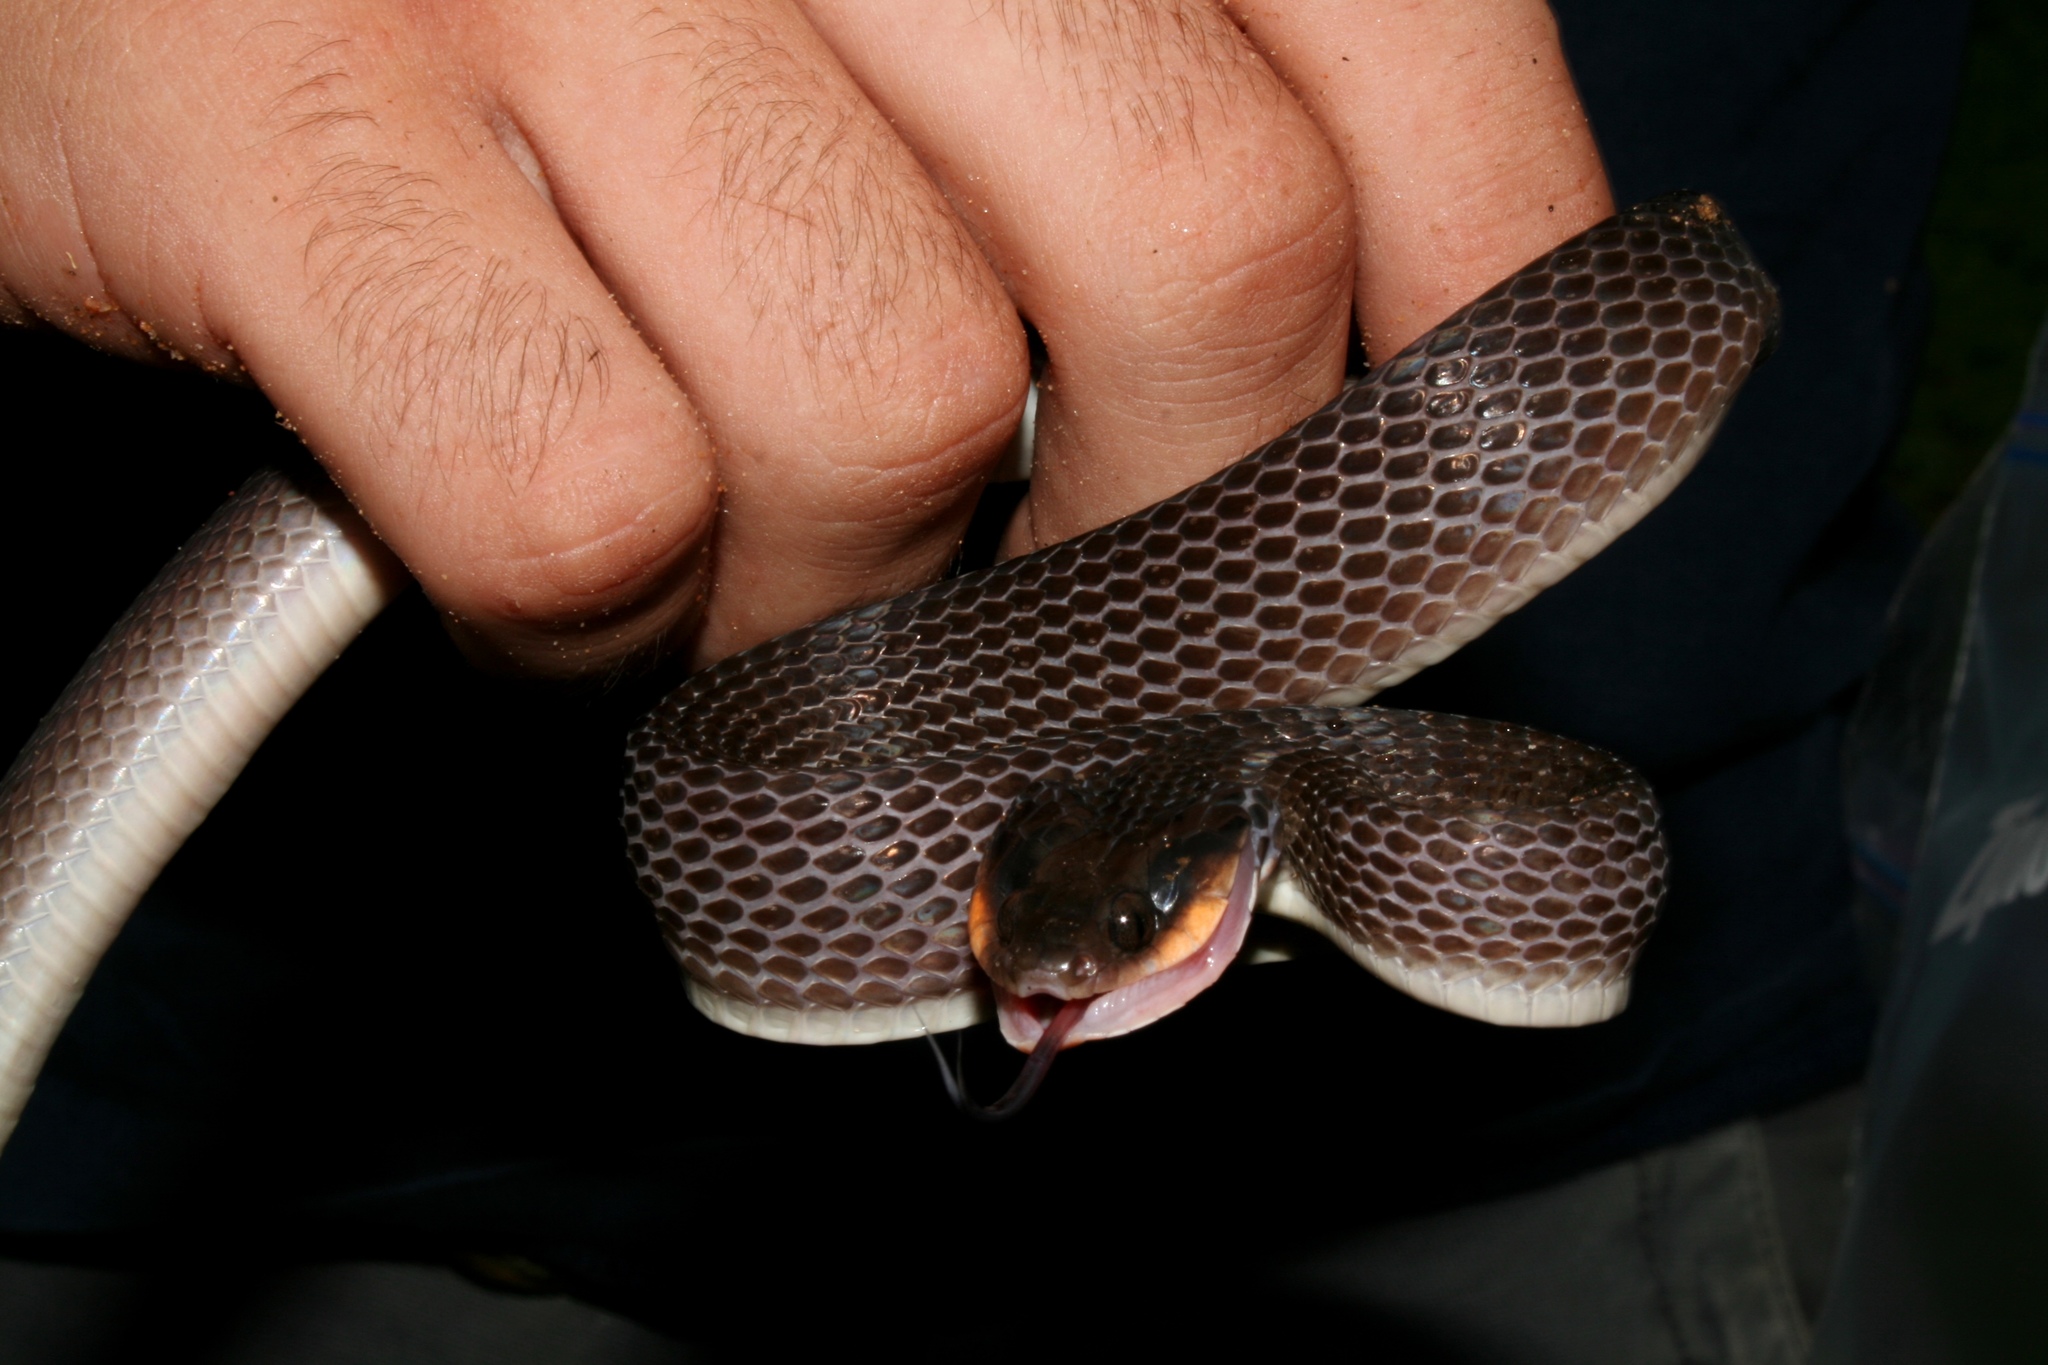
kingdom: Animalia
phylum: Chordata
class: Squamata
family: Colubridae
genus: Crotaphopeltis
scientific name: Crotaphopeltis hotamboeia
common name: Red-lipped snake
